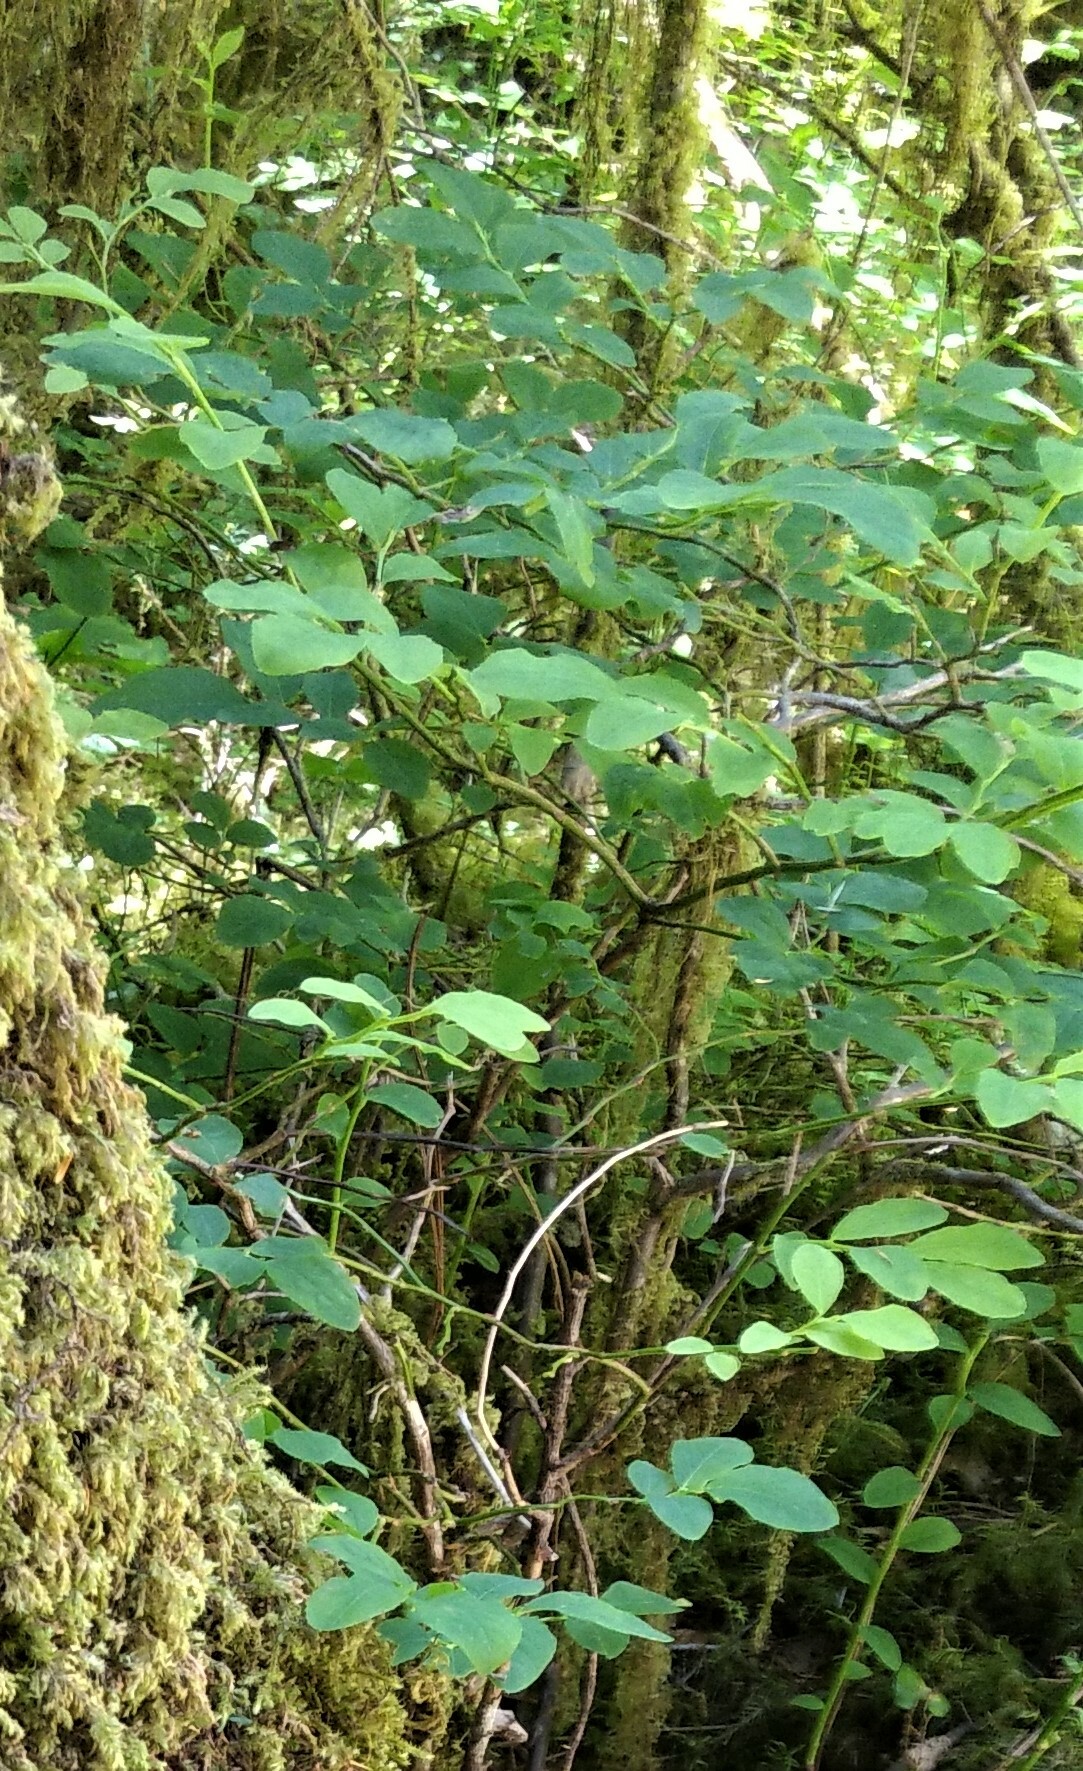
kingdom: Plantae
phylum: Tracheophyta
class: Magnoliopsida
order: Ericales
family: Ericaceae
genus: Vaccinium
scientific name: Vaccinium parvifolium
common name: Red-huckleberry
